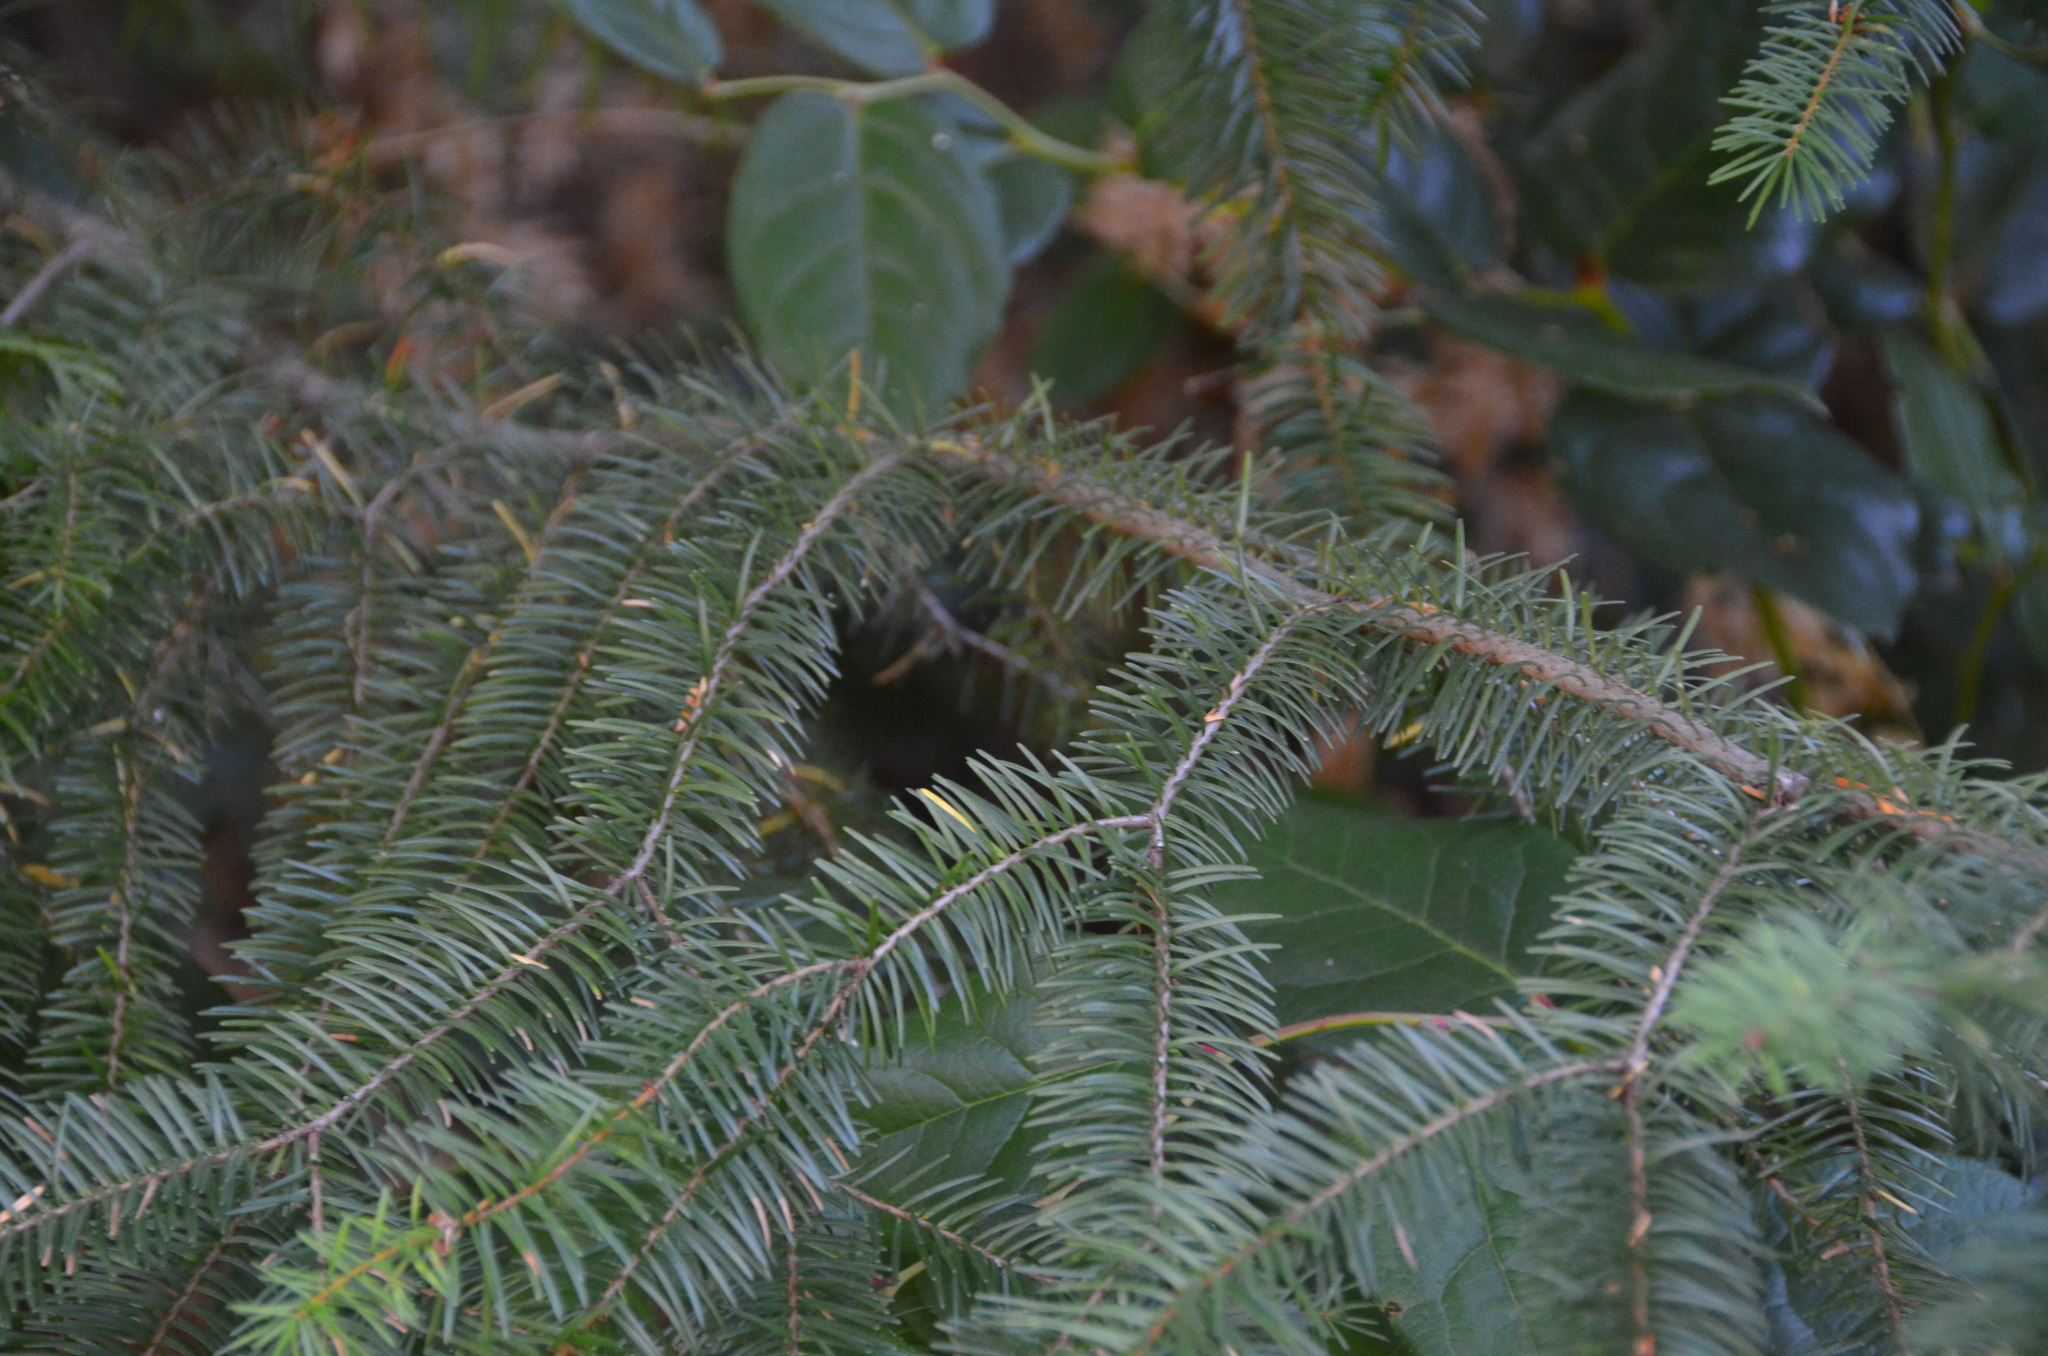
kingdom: Plantae
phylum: Tracheophyta
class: Pinopsida
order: Pinales
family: Pinaceae
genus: Pseudotsuga
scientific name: Pseudotsuga menziesii
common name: Douglas fir
